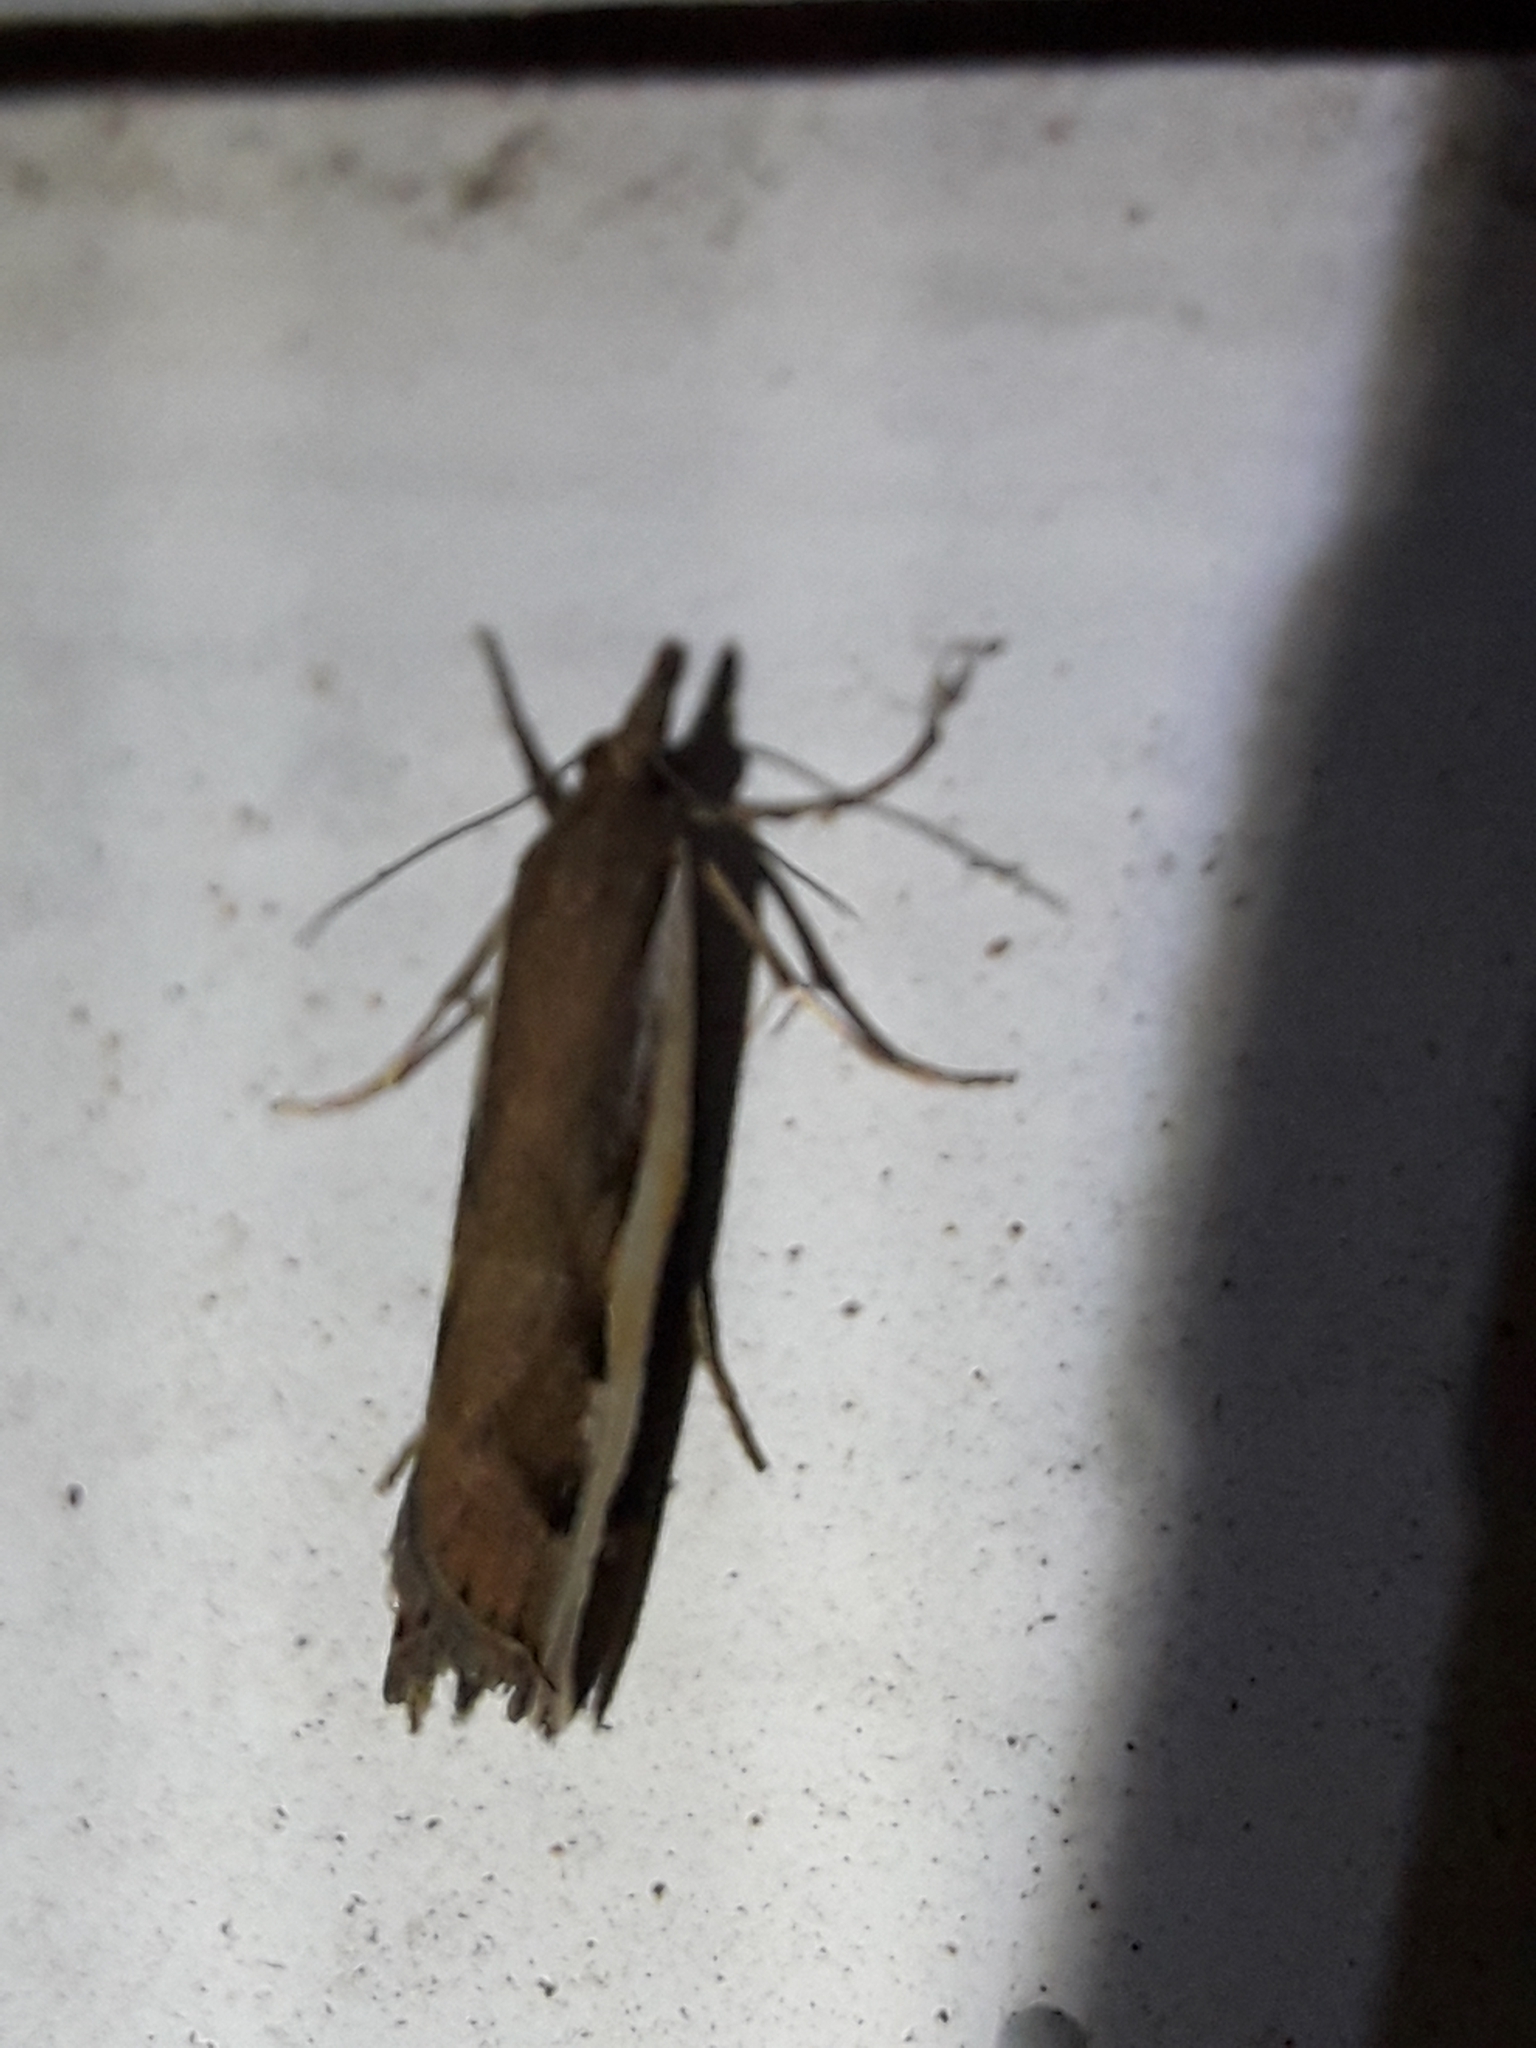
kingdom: Animalia
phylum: Arthropoda
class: Insecta
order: Lepidoptera
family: Crambidae
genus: Orocrambus
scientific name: Orocrambus flexuosellus
